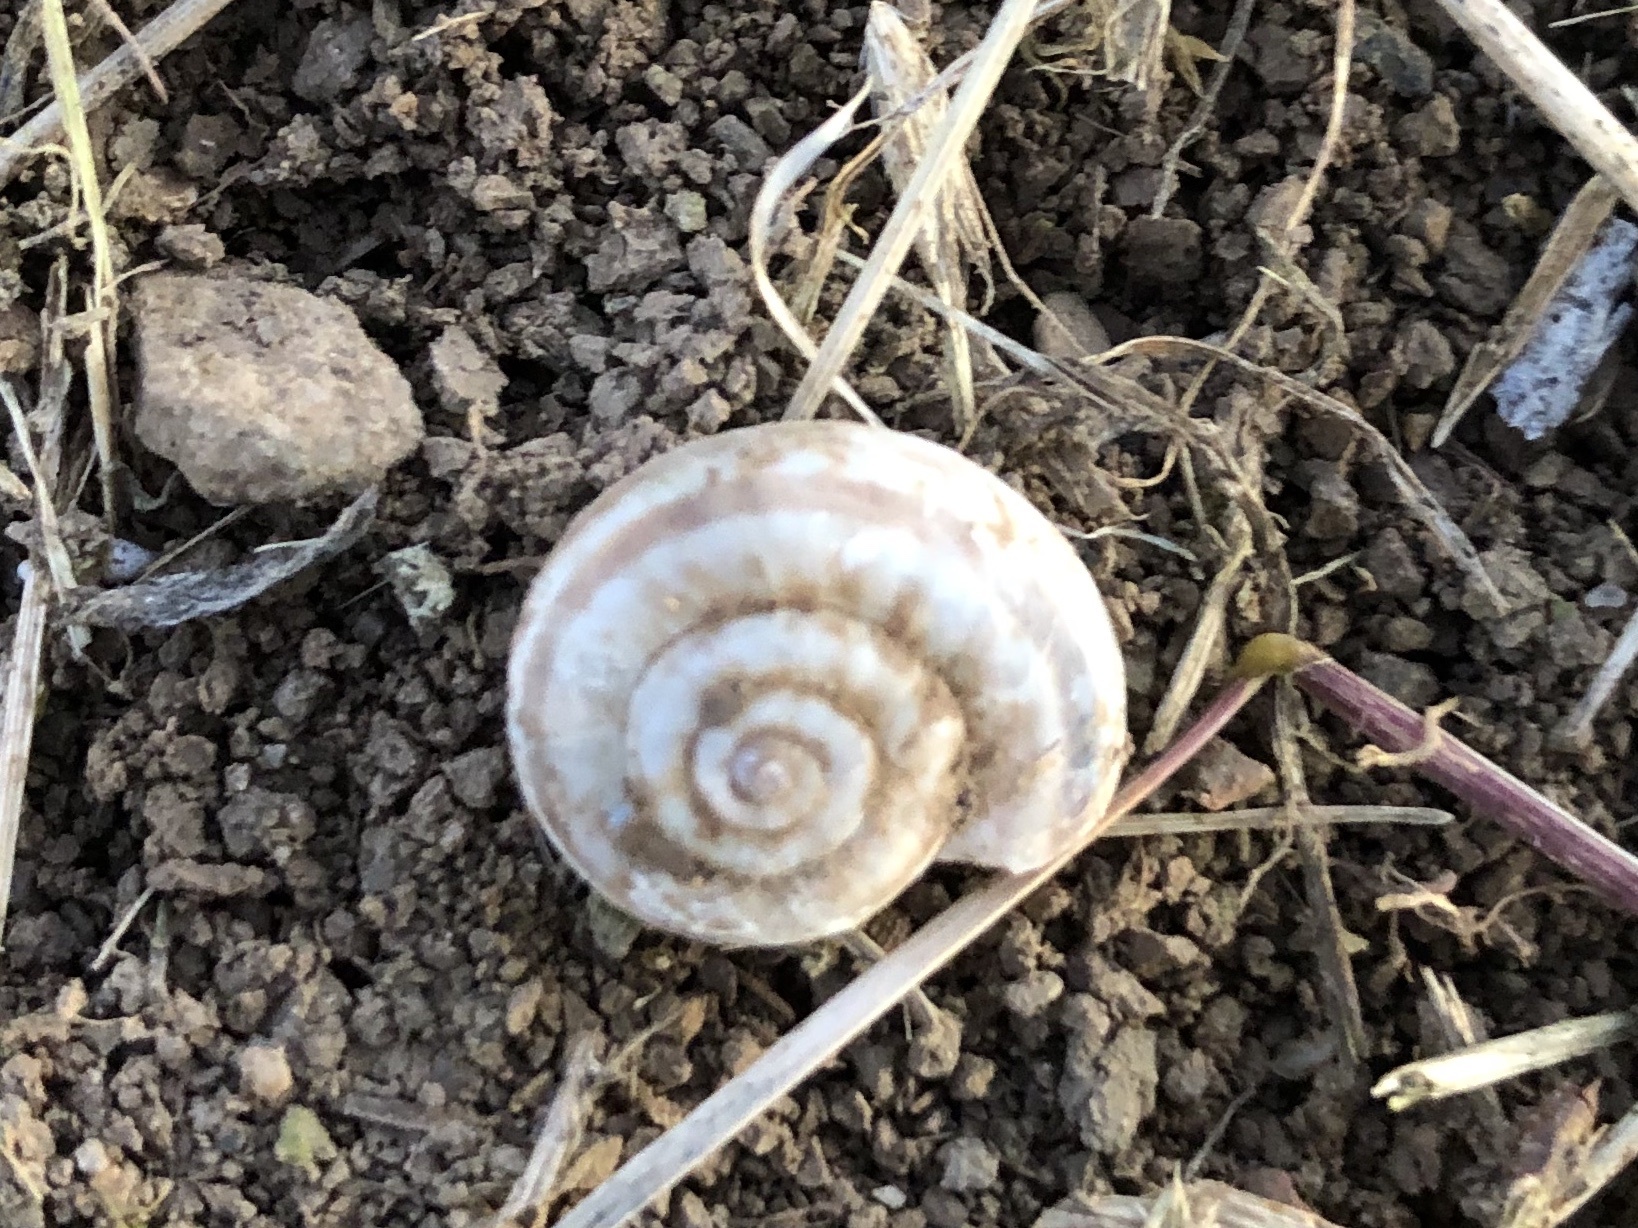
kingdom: Animalia
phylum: Mollusca
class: Gastropoda
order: Stylommatophora
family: Geomitridae
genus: Xerolenta
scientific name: Xerolenta obvia
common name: White heath snail
